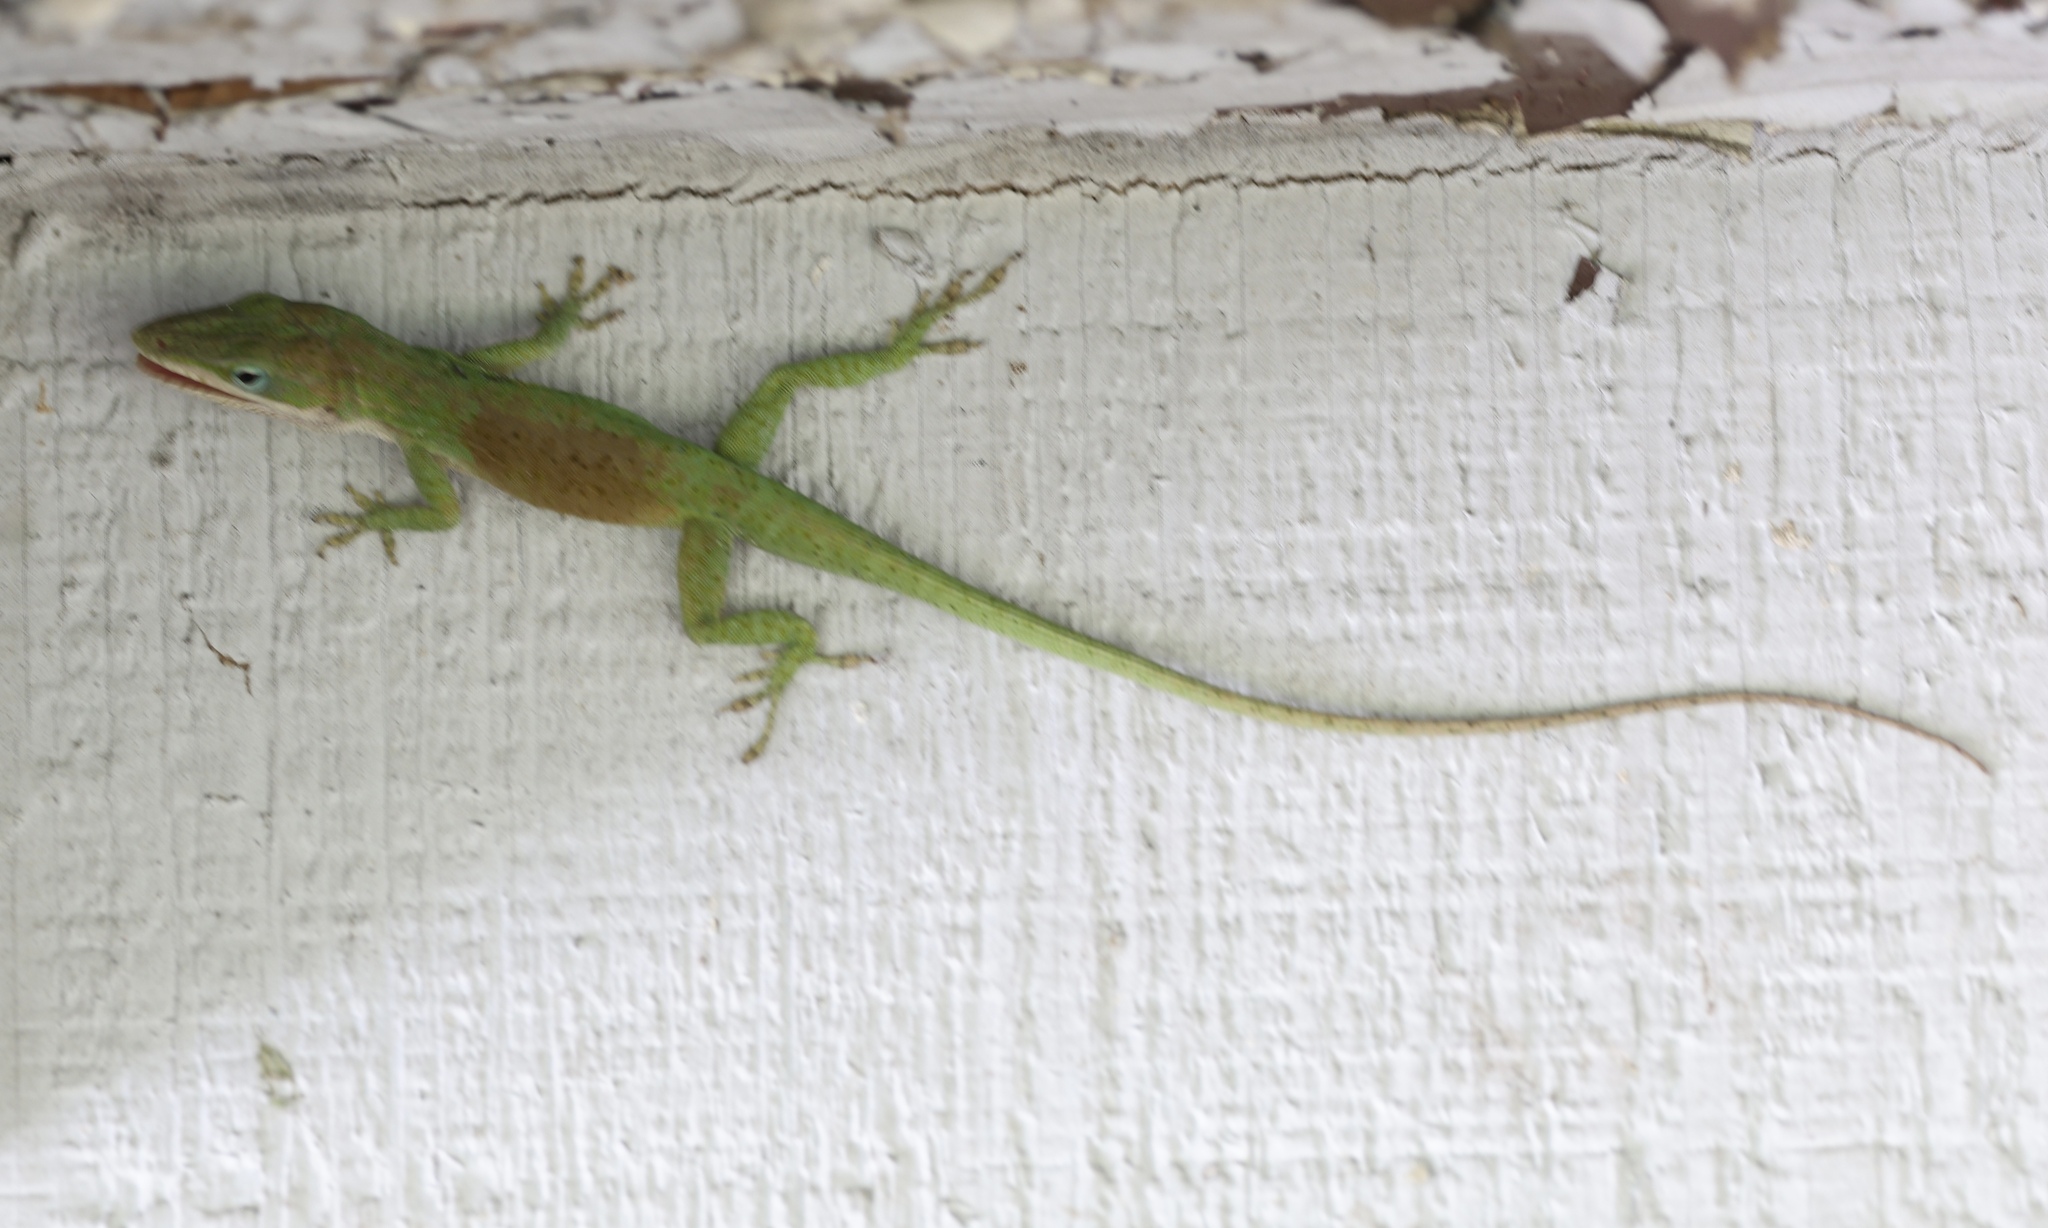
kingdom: Animalia
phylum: Chordata
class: Squamata
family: Dactyloidae
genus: Anolis
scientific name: Anolis carolinensis
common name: Green anole
